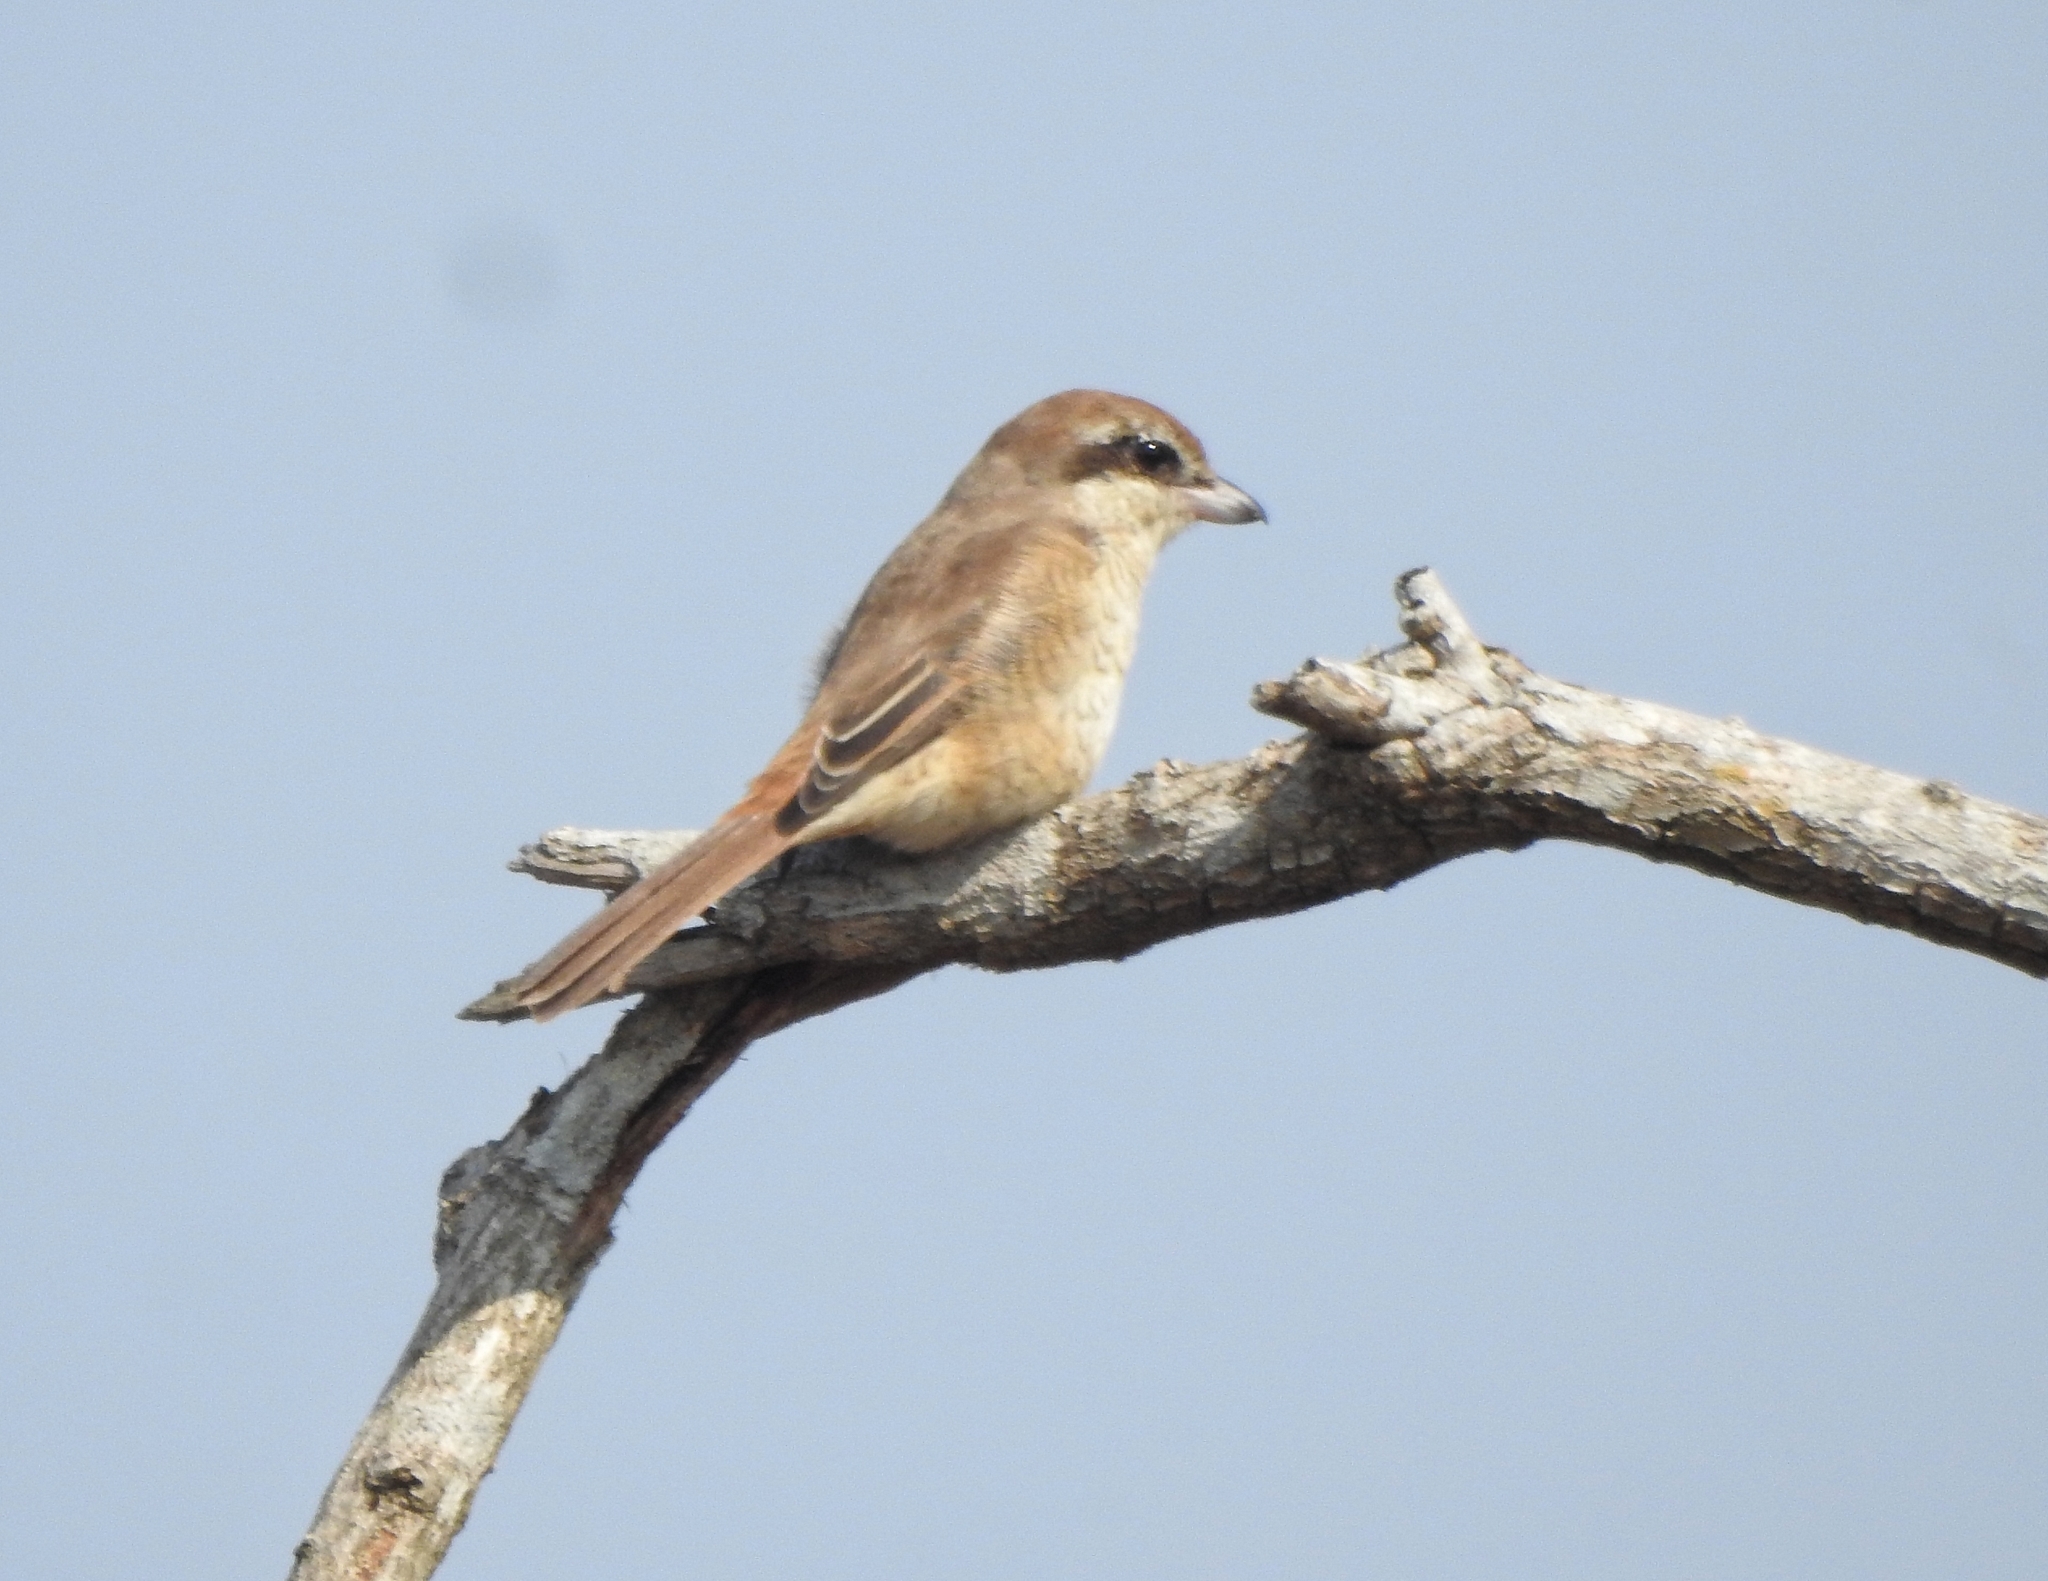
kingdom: Animalia
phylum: Chordata
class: Aves
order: Passeriformes
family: Laniidae
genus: Lanius
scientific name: Lanius cristatus
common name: Brown shrike
